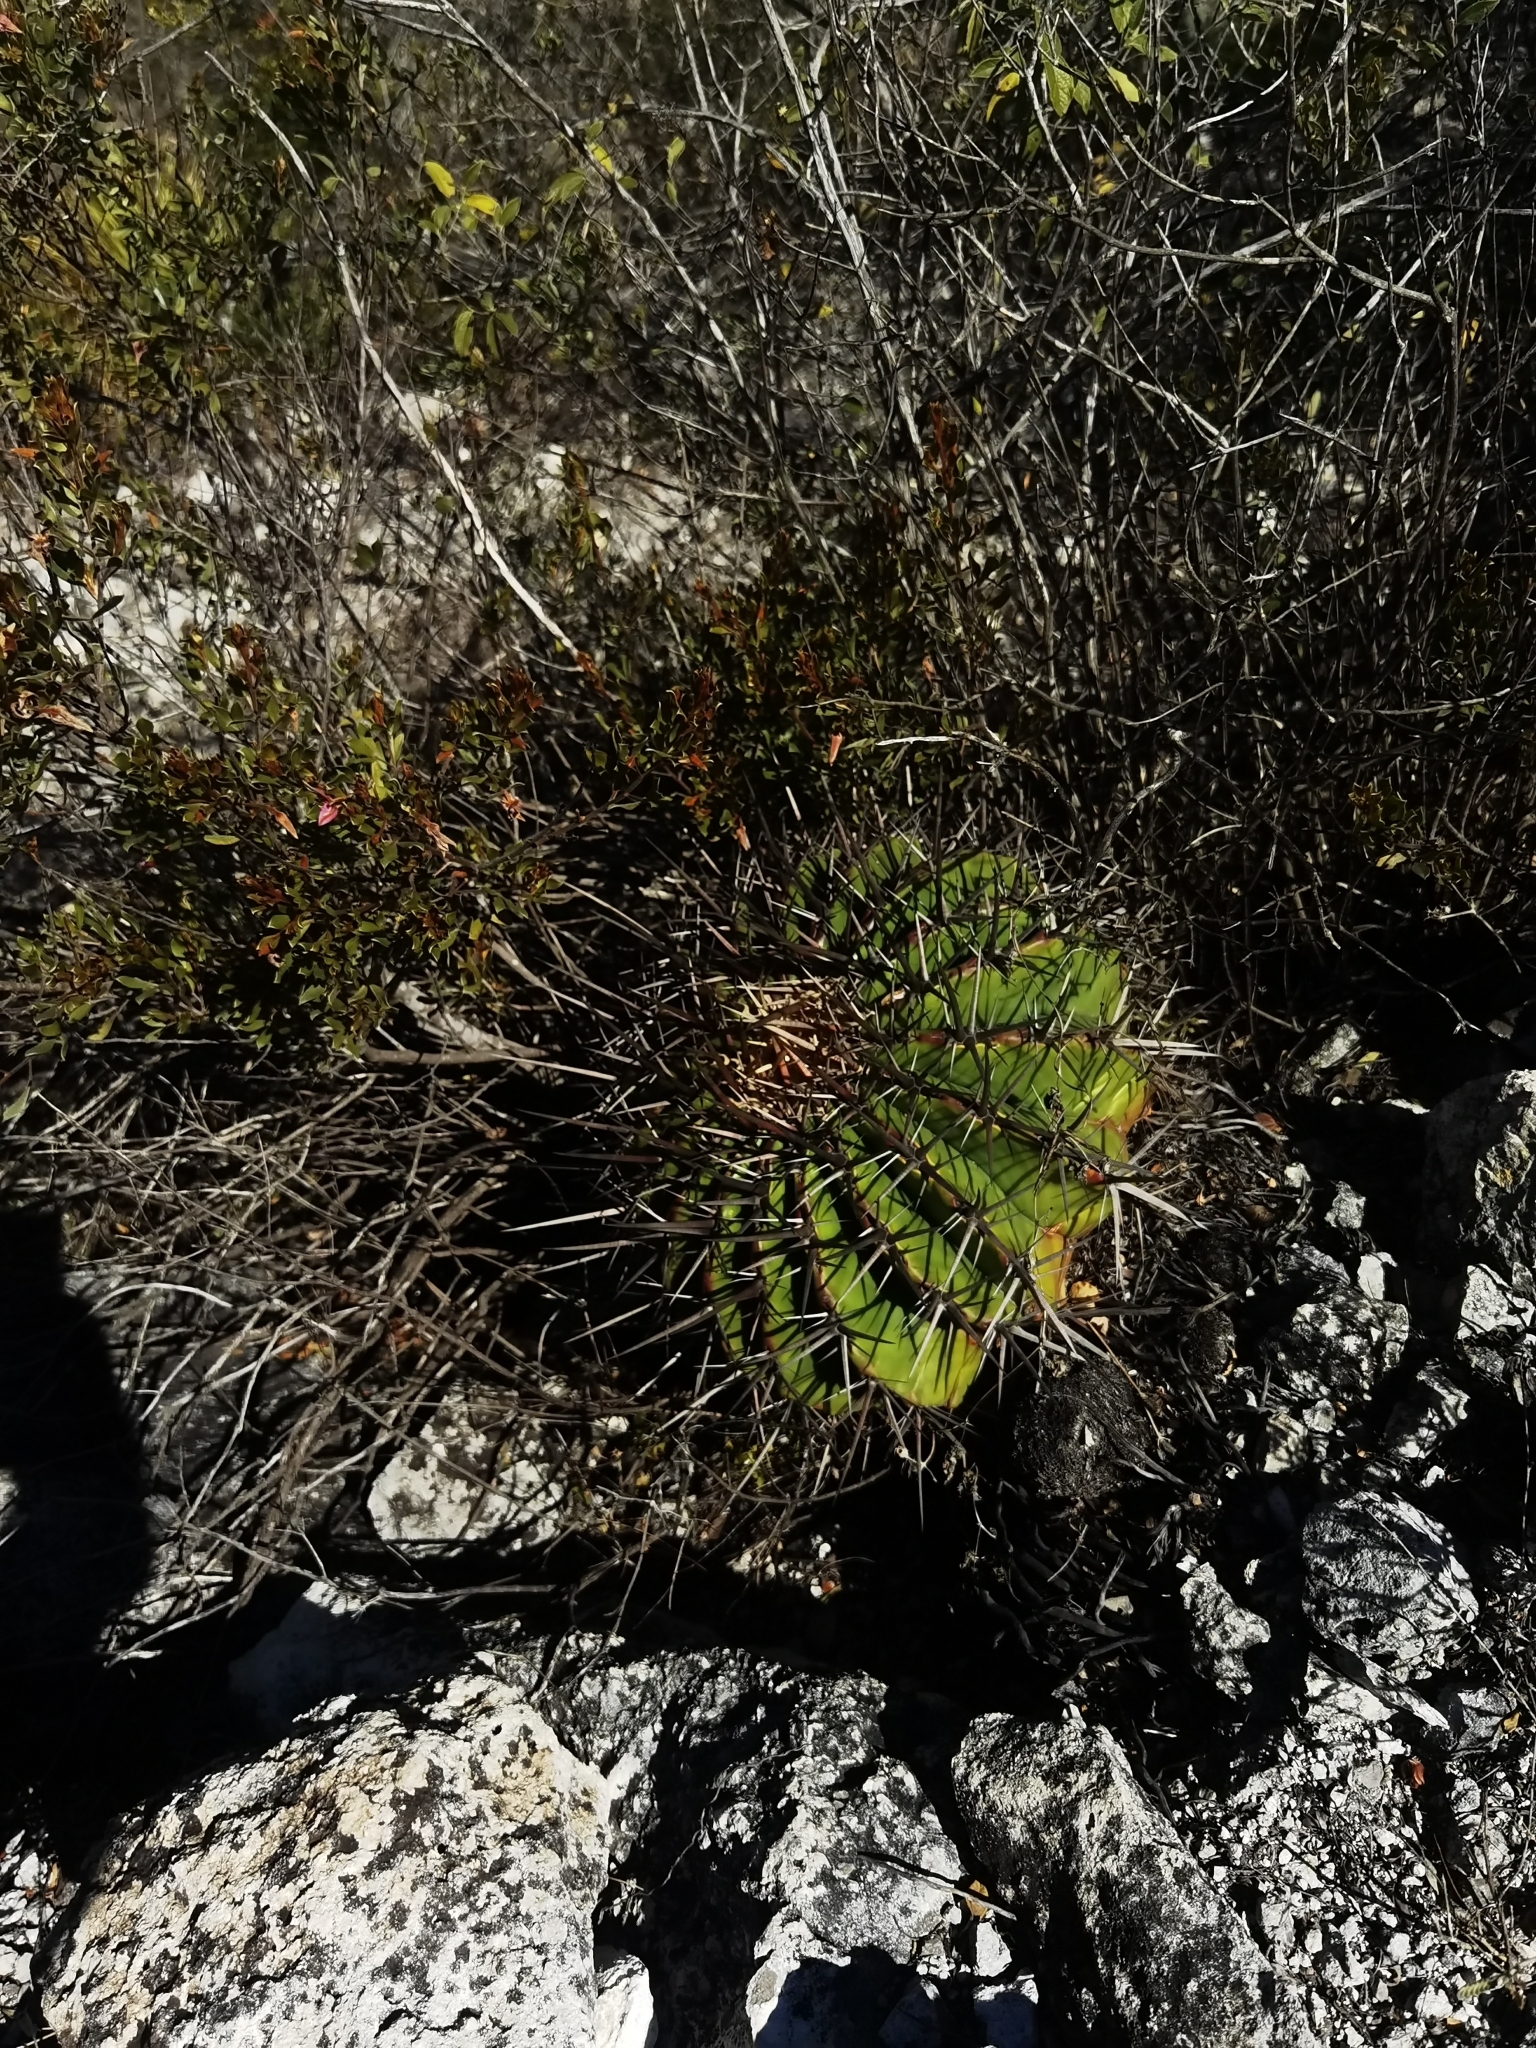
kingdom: Plantae
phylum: Tracheophyta
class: Magnoliopsida
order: Caryophyllales
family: Cactaceae
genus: Echinocactus
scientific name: Echinocactus platyacanthus
